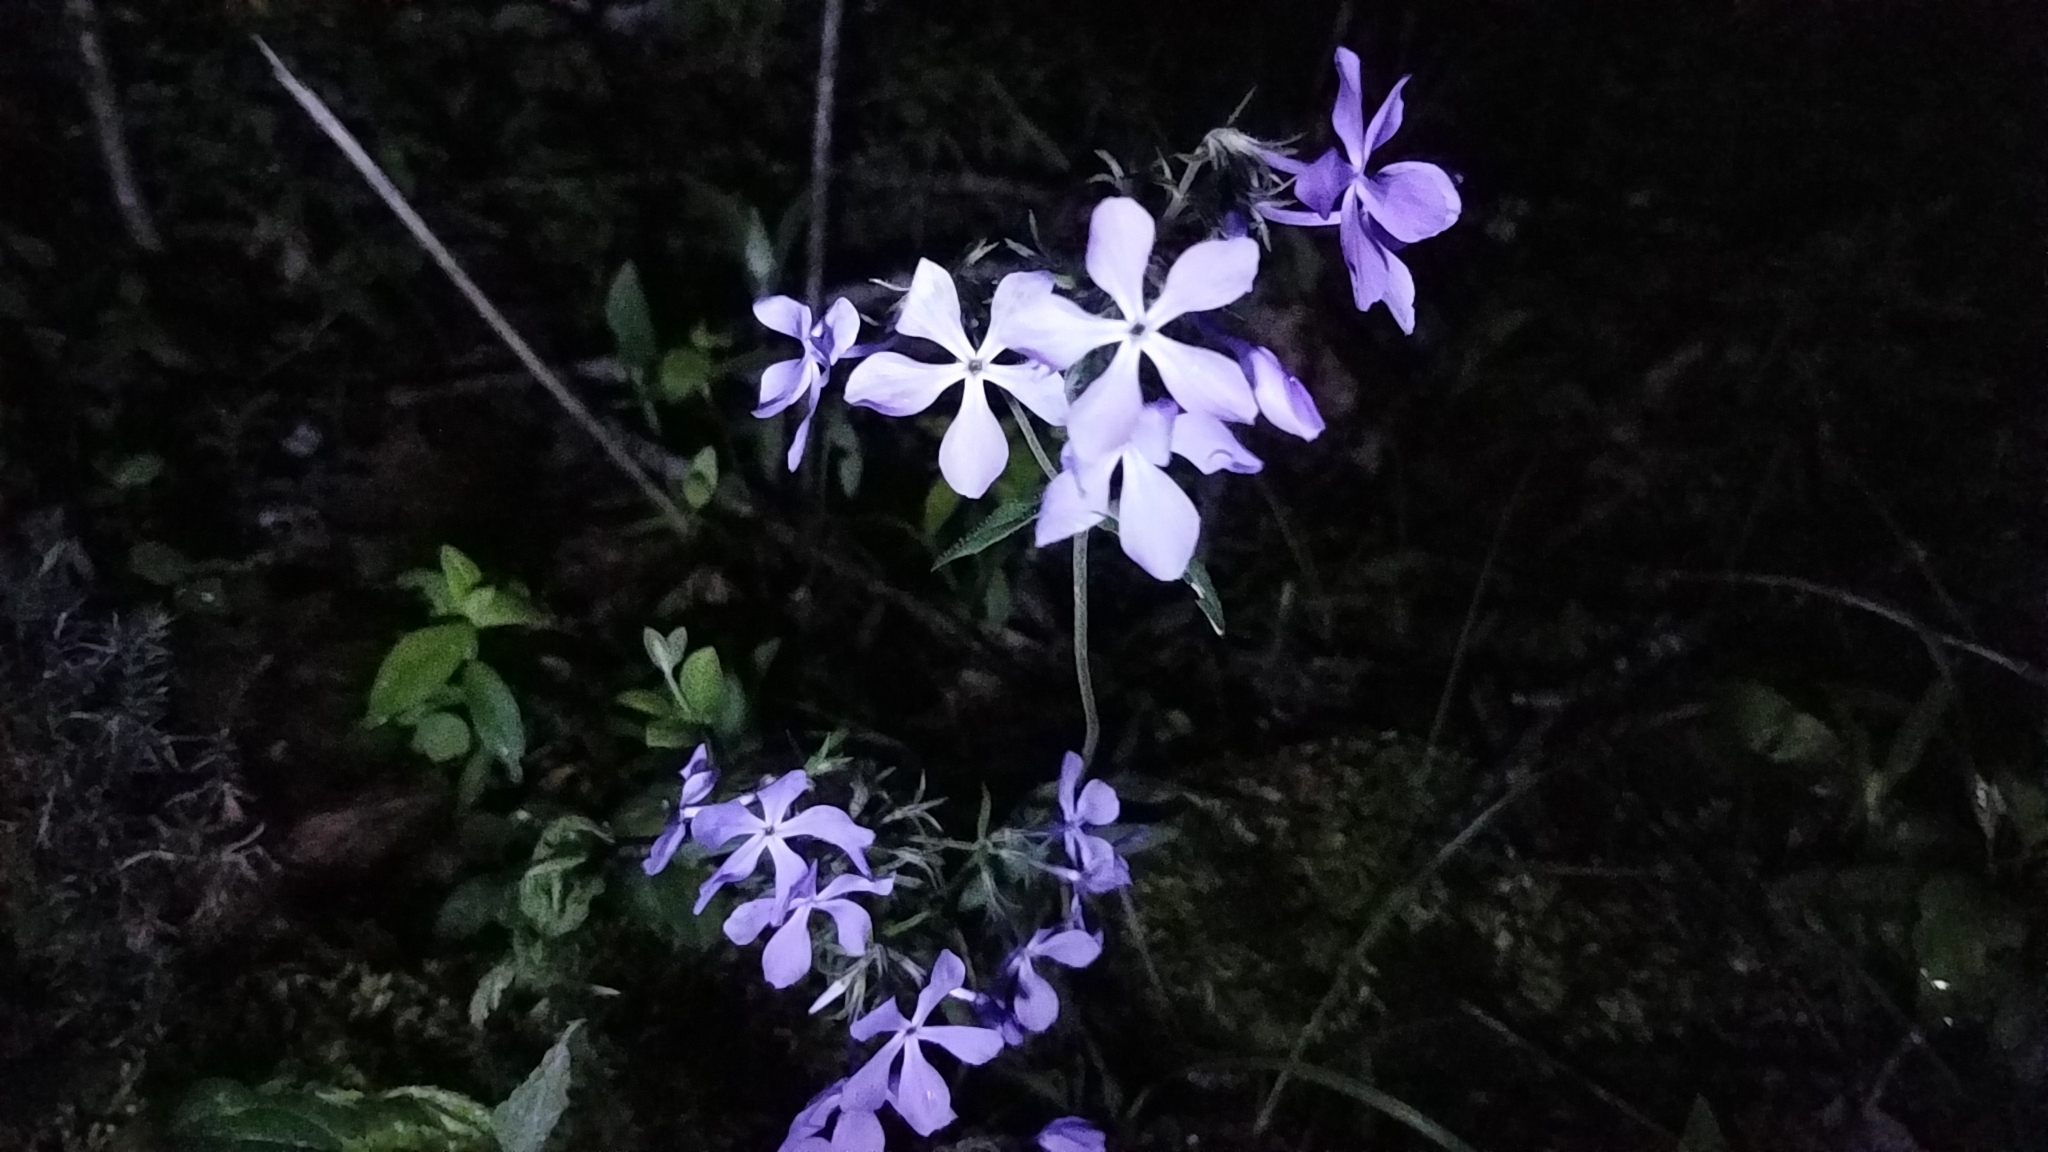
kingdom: Plantae
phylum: Tracheophyta
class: Magnoliopsida
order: Ericales
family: Polemoniaceae
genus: Phlox
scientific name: Phlox divaricata
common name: Blue phlox
